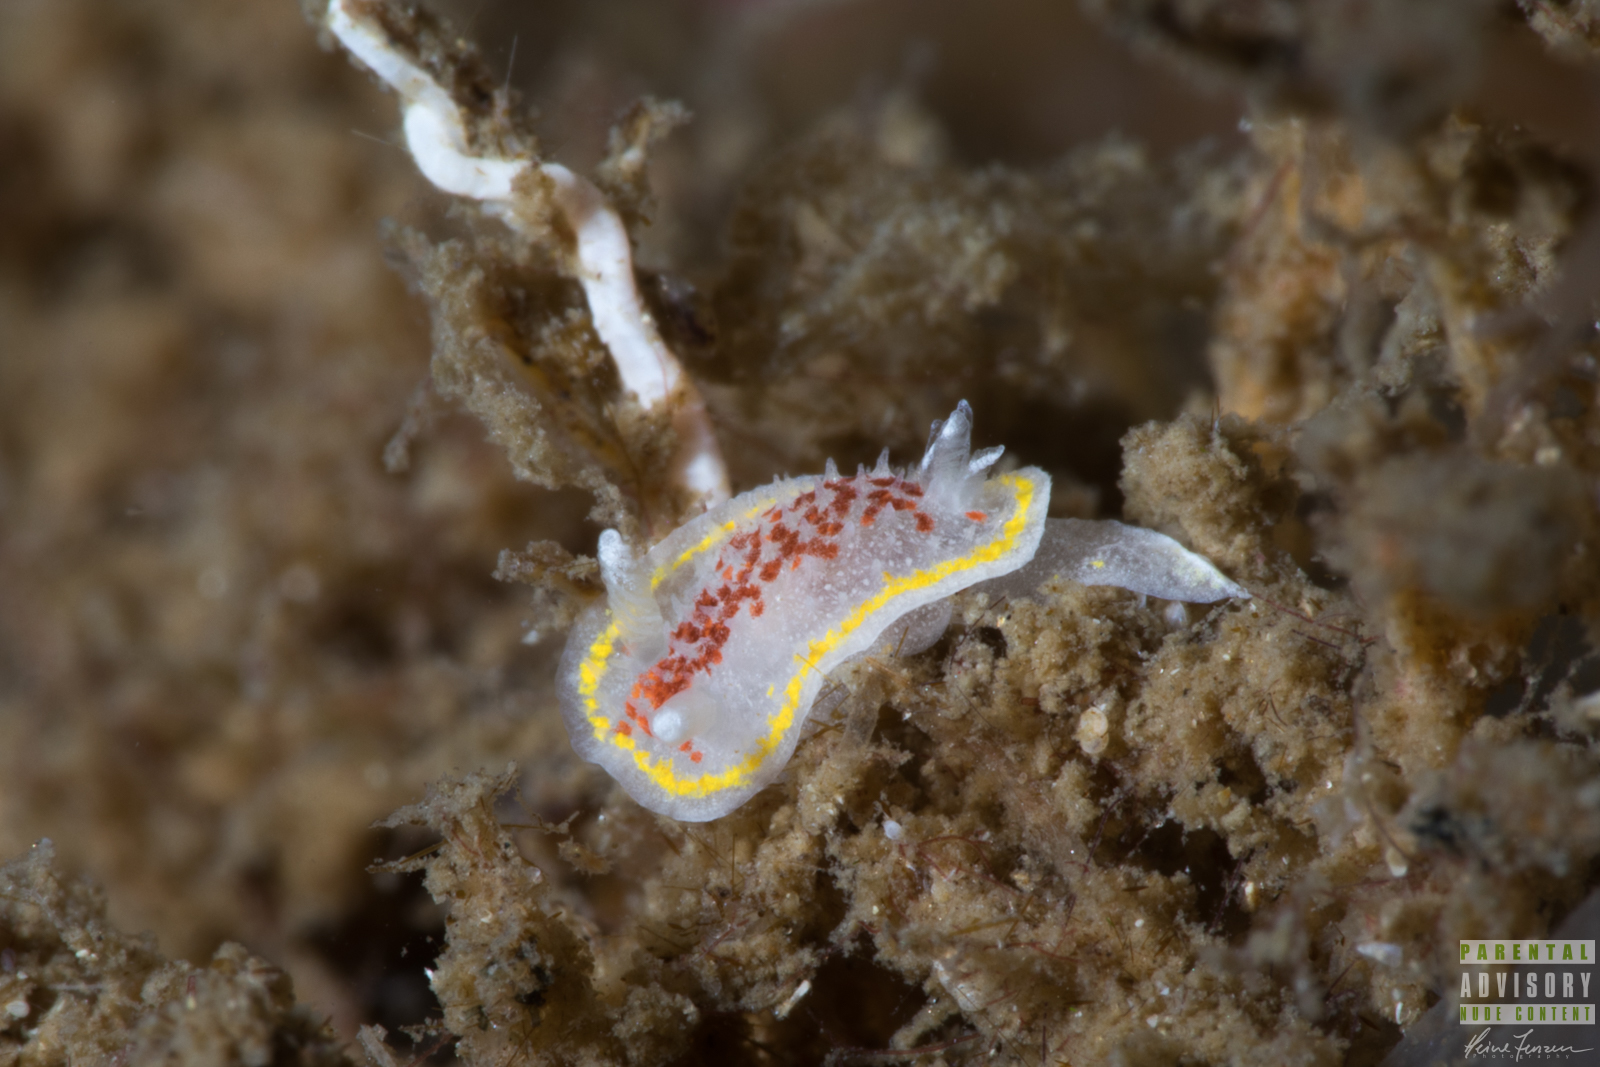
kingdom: Animalia
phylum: Mollusca
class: Gastropoda
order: Nudibranchia
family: Calycidorididae
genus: Diaphorodoris
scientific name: Diaphorodoris luteocincta
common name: Fried egg nudibranch
